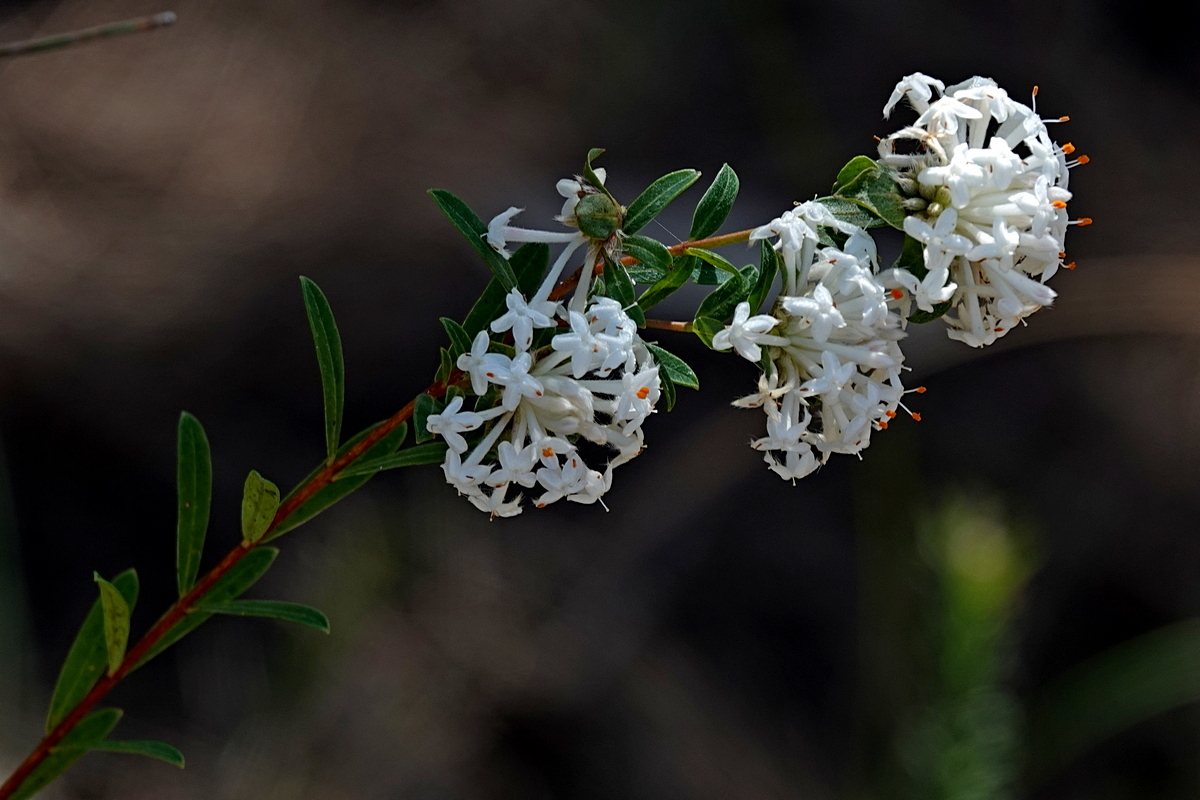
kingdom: Plantae
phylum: Tracheophyta
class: Magnoliopsida
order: Malvales
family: Thymelaeaceae
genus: Pimelea
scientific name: Pimelea linifolia
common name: Queen-of-the-bush
